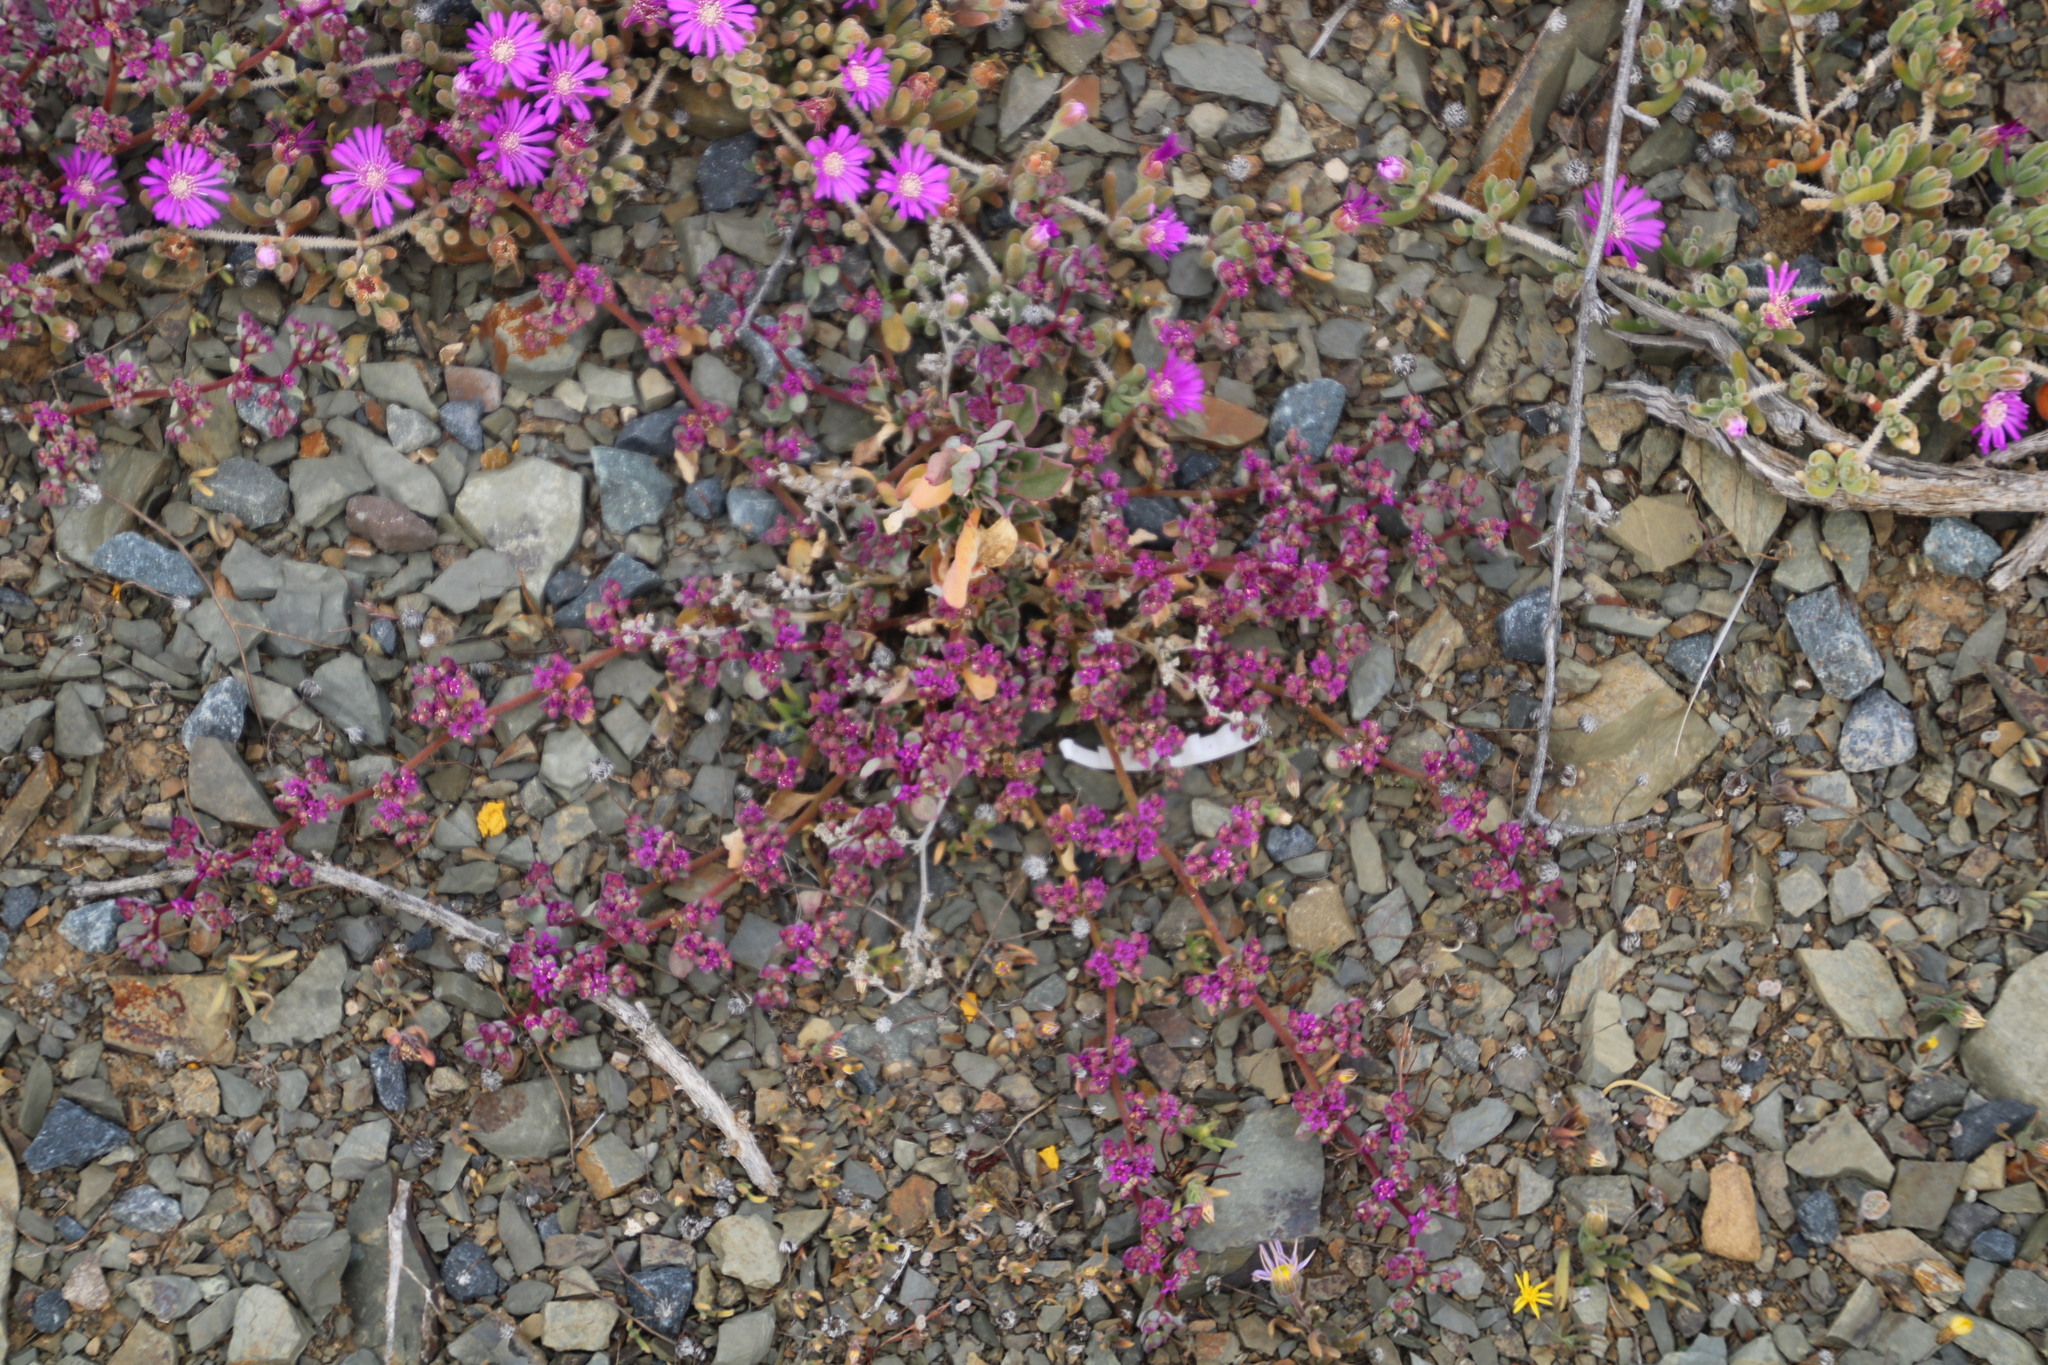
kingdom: Plantae
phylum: Tracheophyta
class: Magnoliopsida
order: Caryophyllales
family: Aizoaceae
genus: Aizoon
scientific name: Aizoon sarcophyllum
